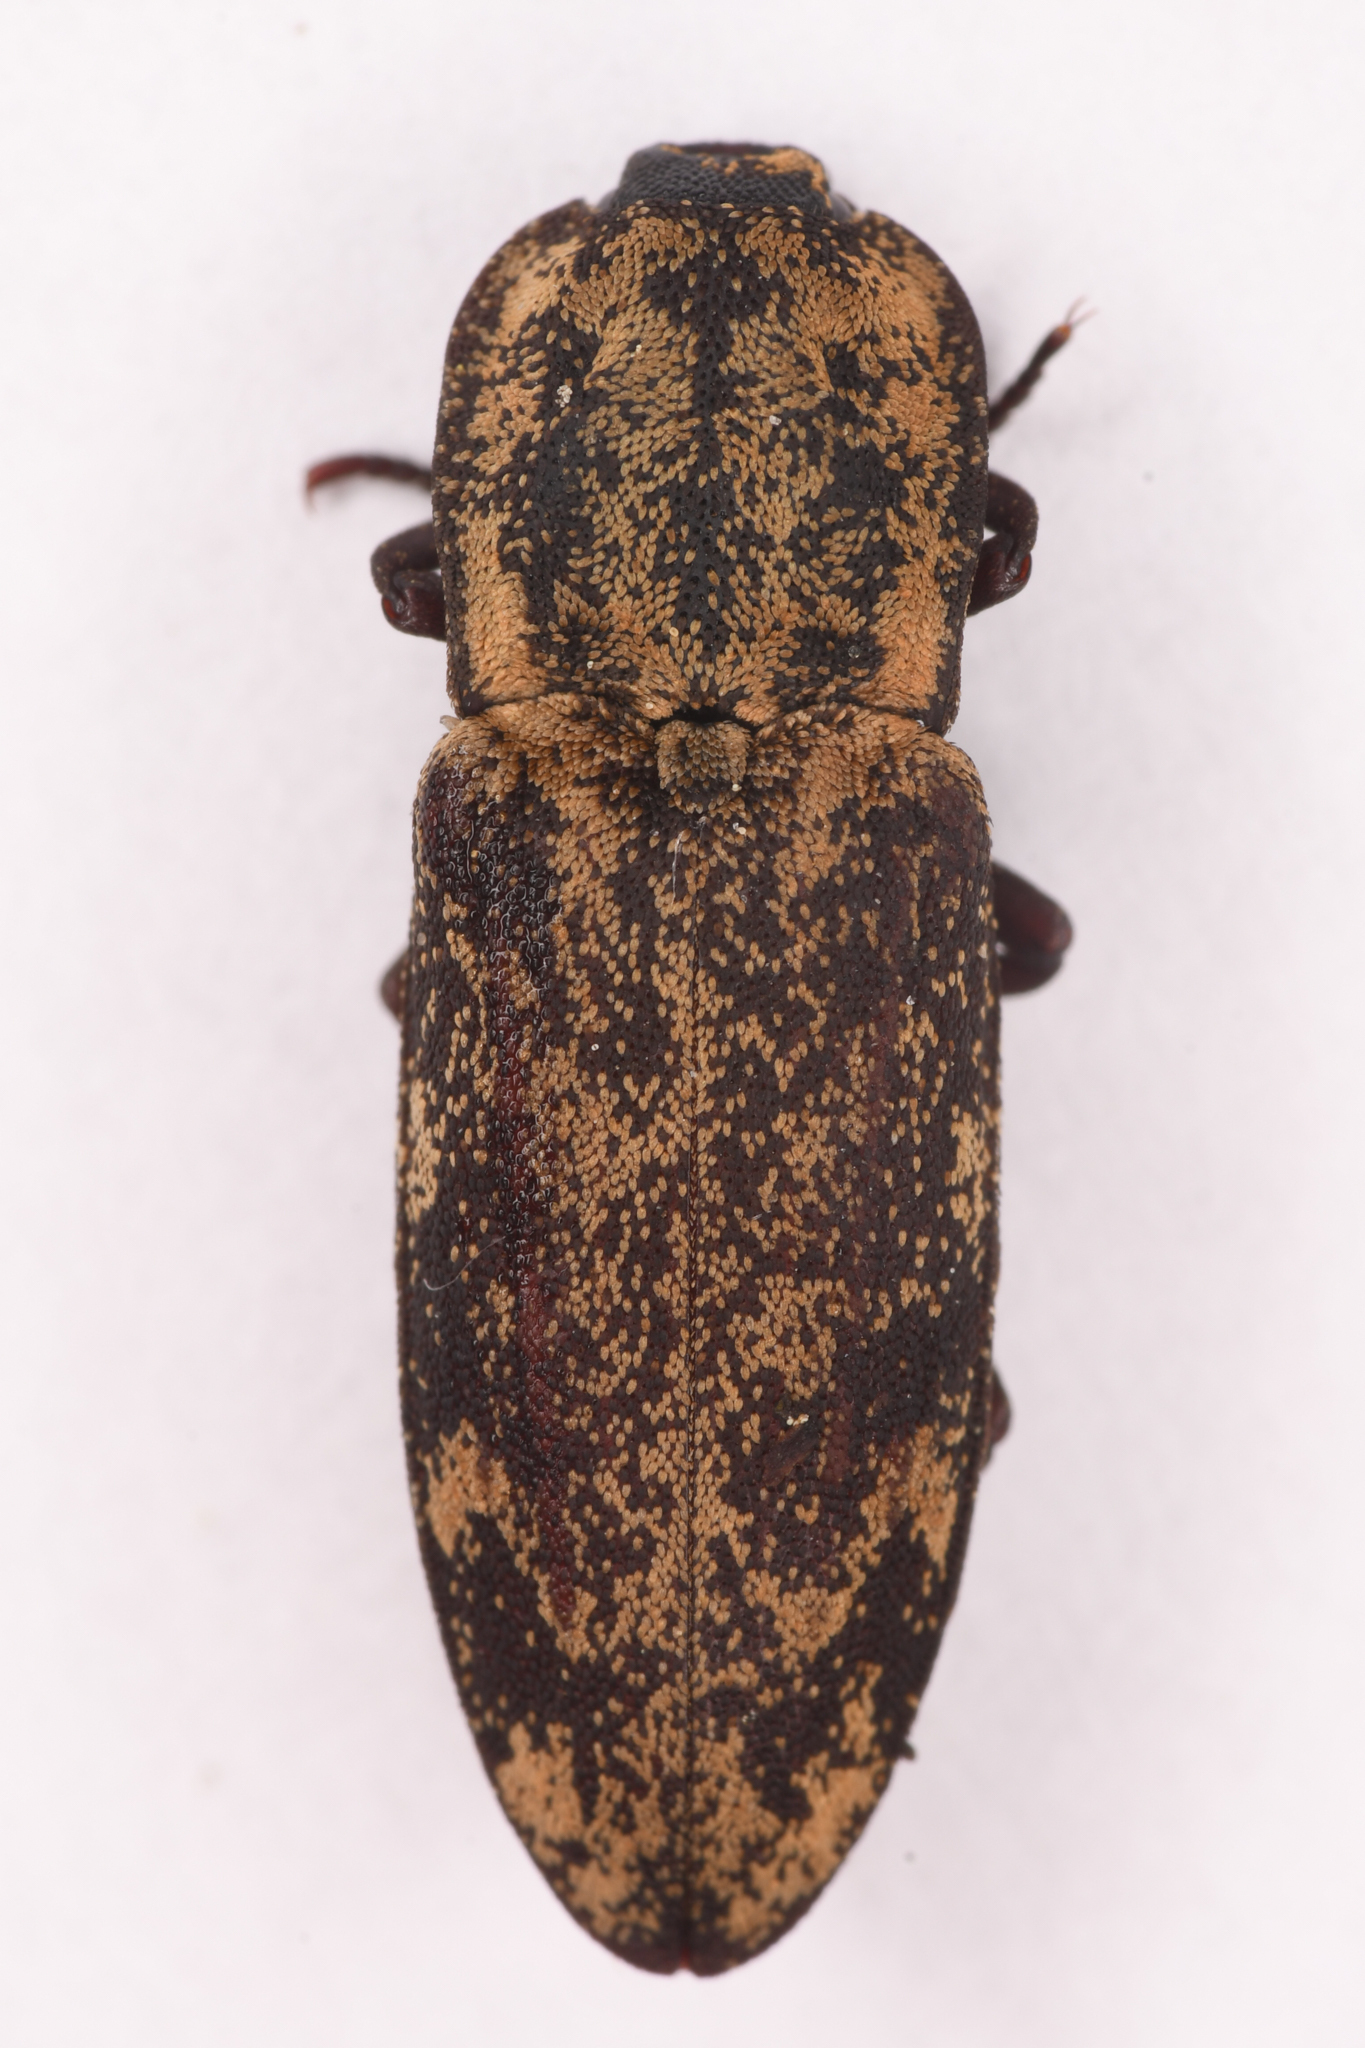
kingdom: Animalia
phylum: Arthropoda
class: Insecta
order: Coleoptera
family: Elateridae
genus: Danosoma
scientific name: Danosoma brevicorne
